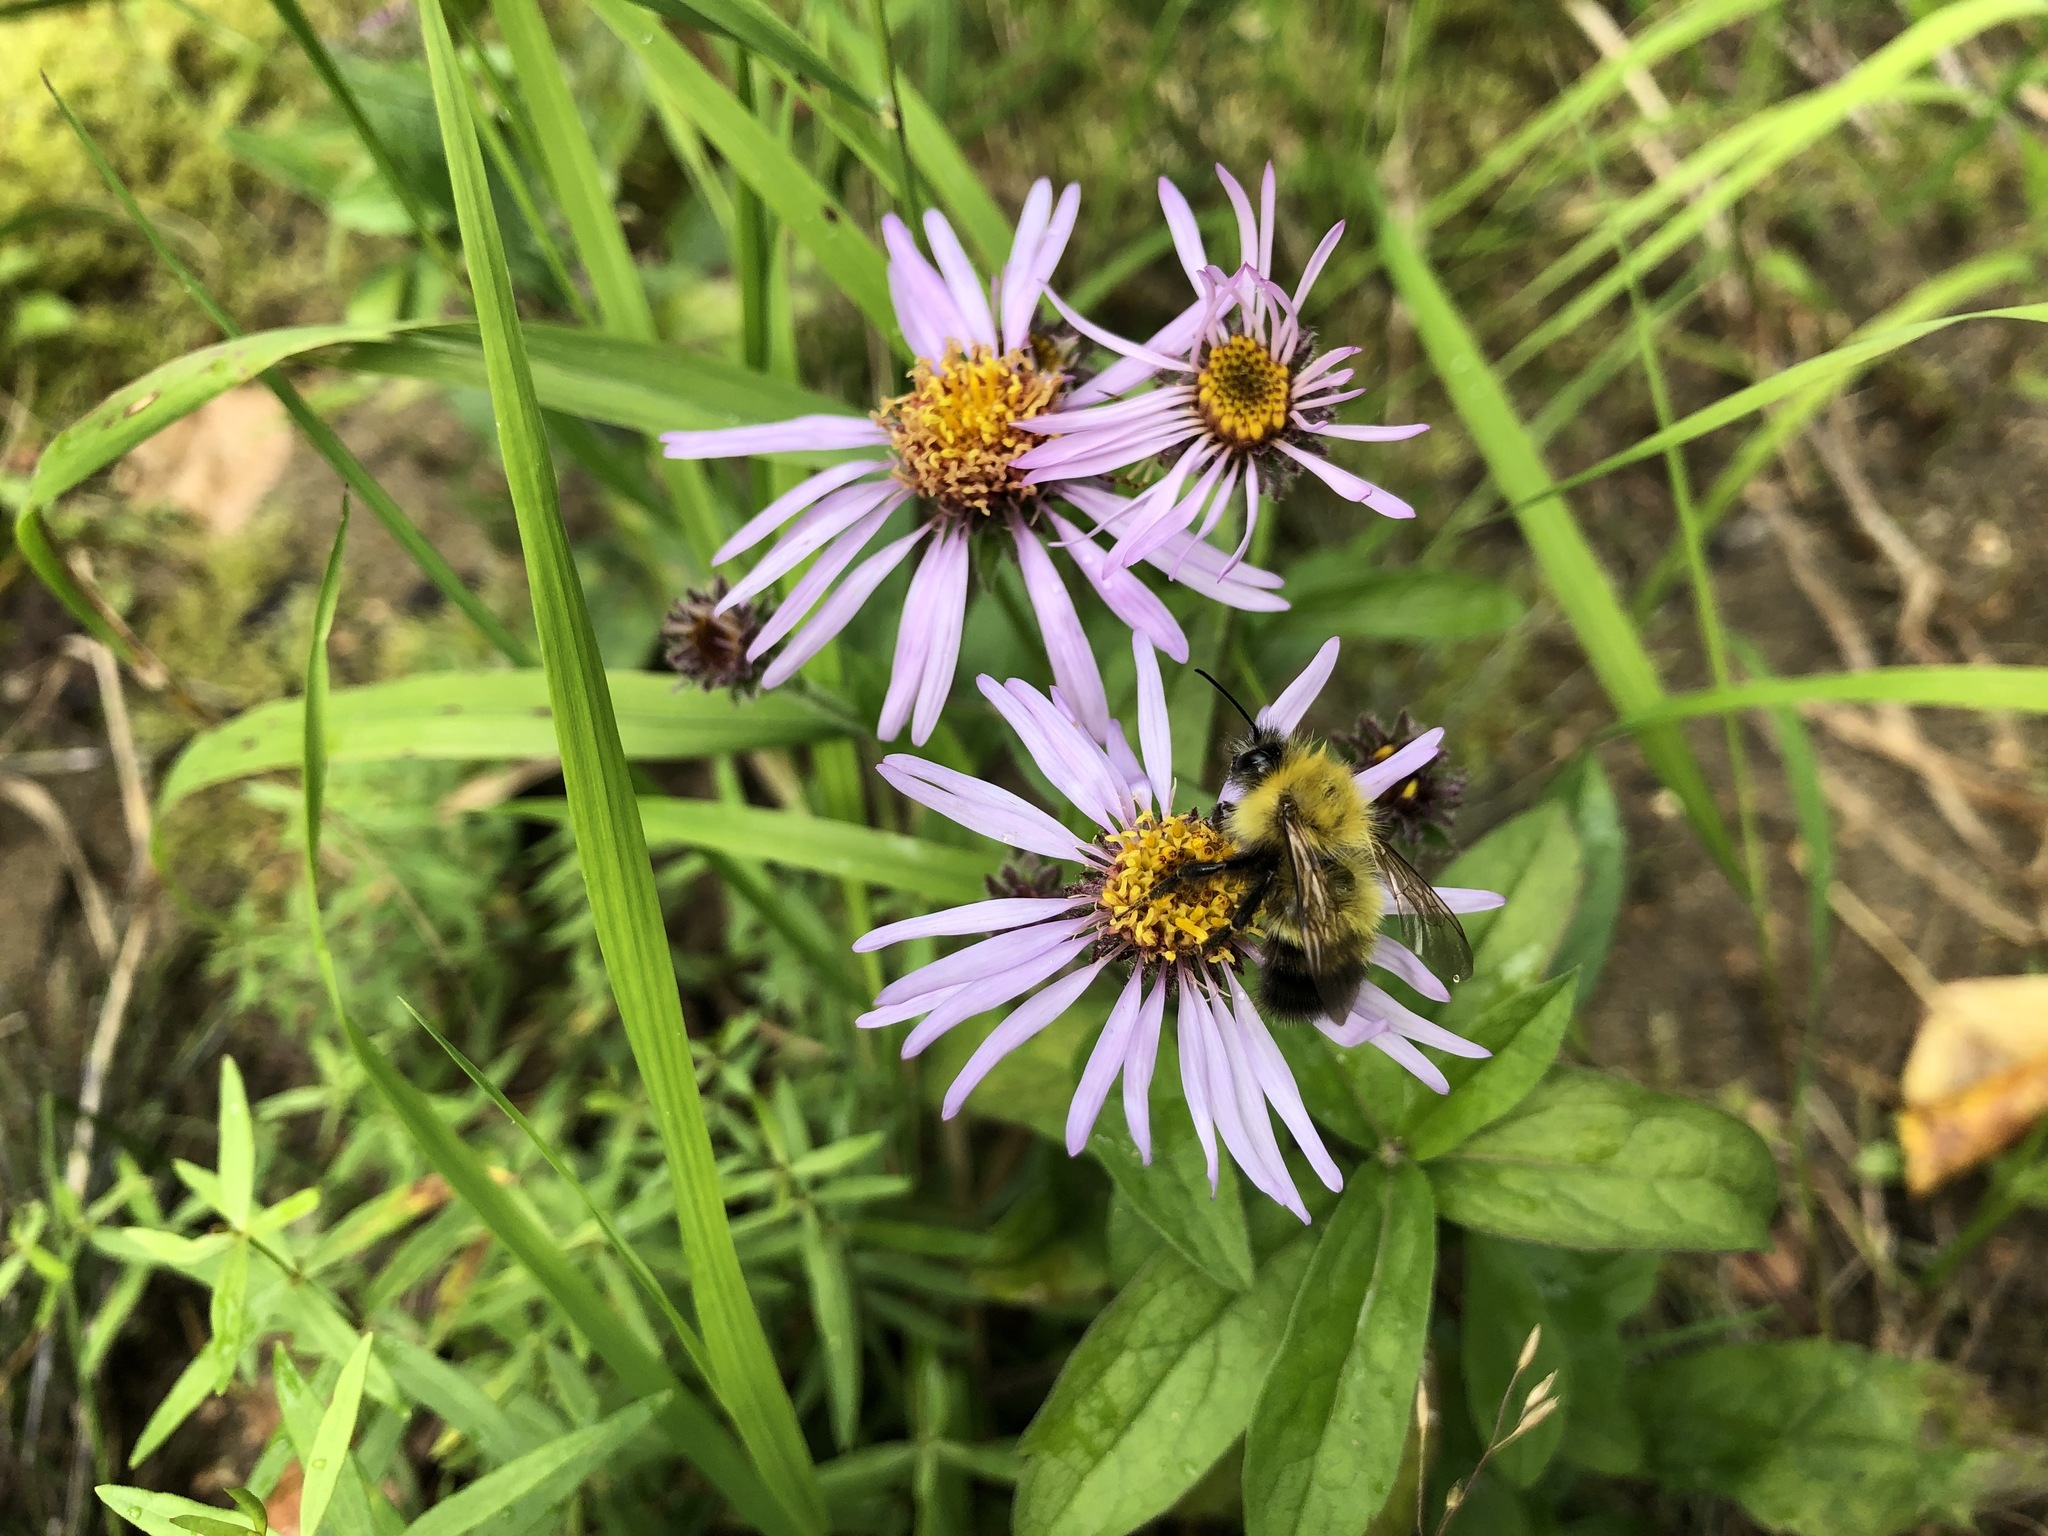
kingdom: Animalia
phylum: Arthropoda
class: Insecta
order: Hymenoptera
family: Apidae
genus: Bombus
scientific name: Bombus perplexus
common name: Confusing bumble bee
